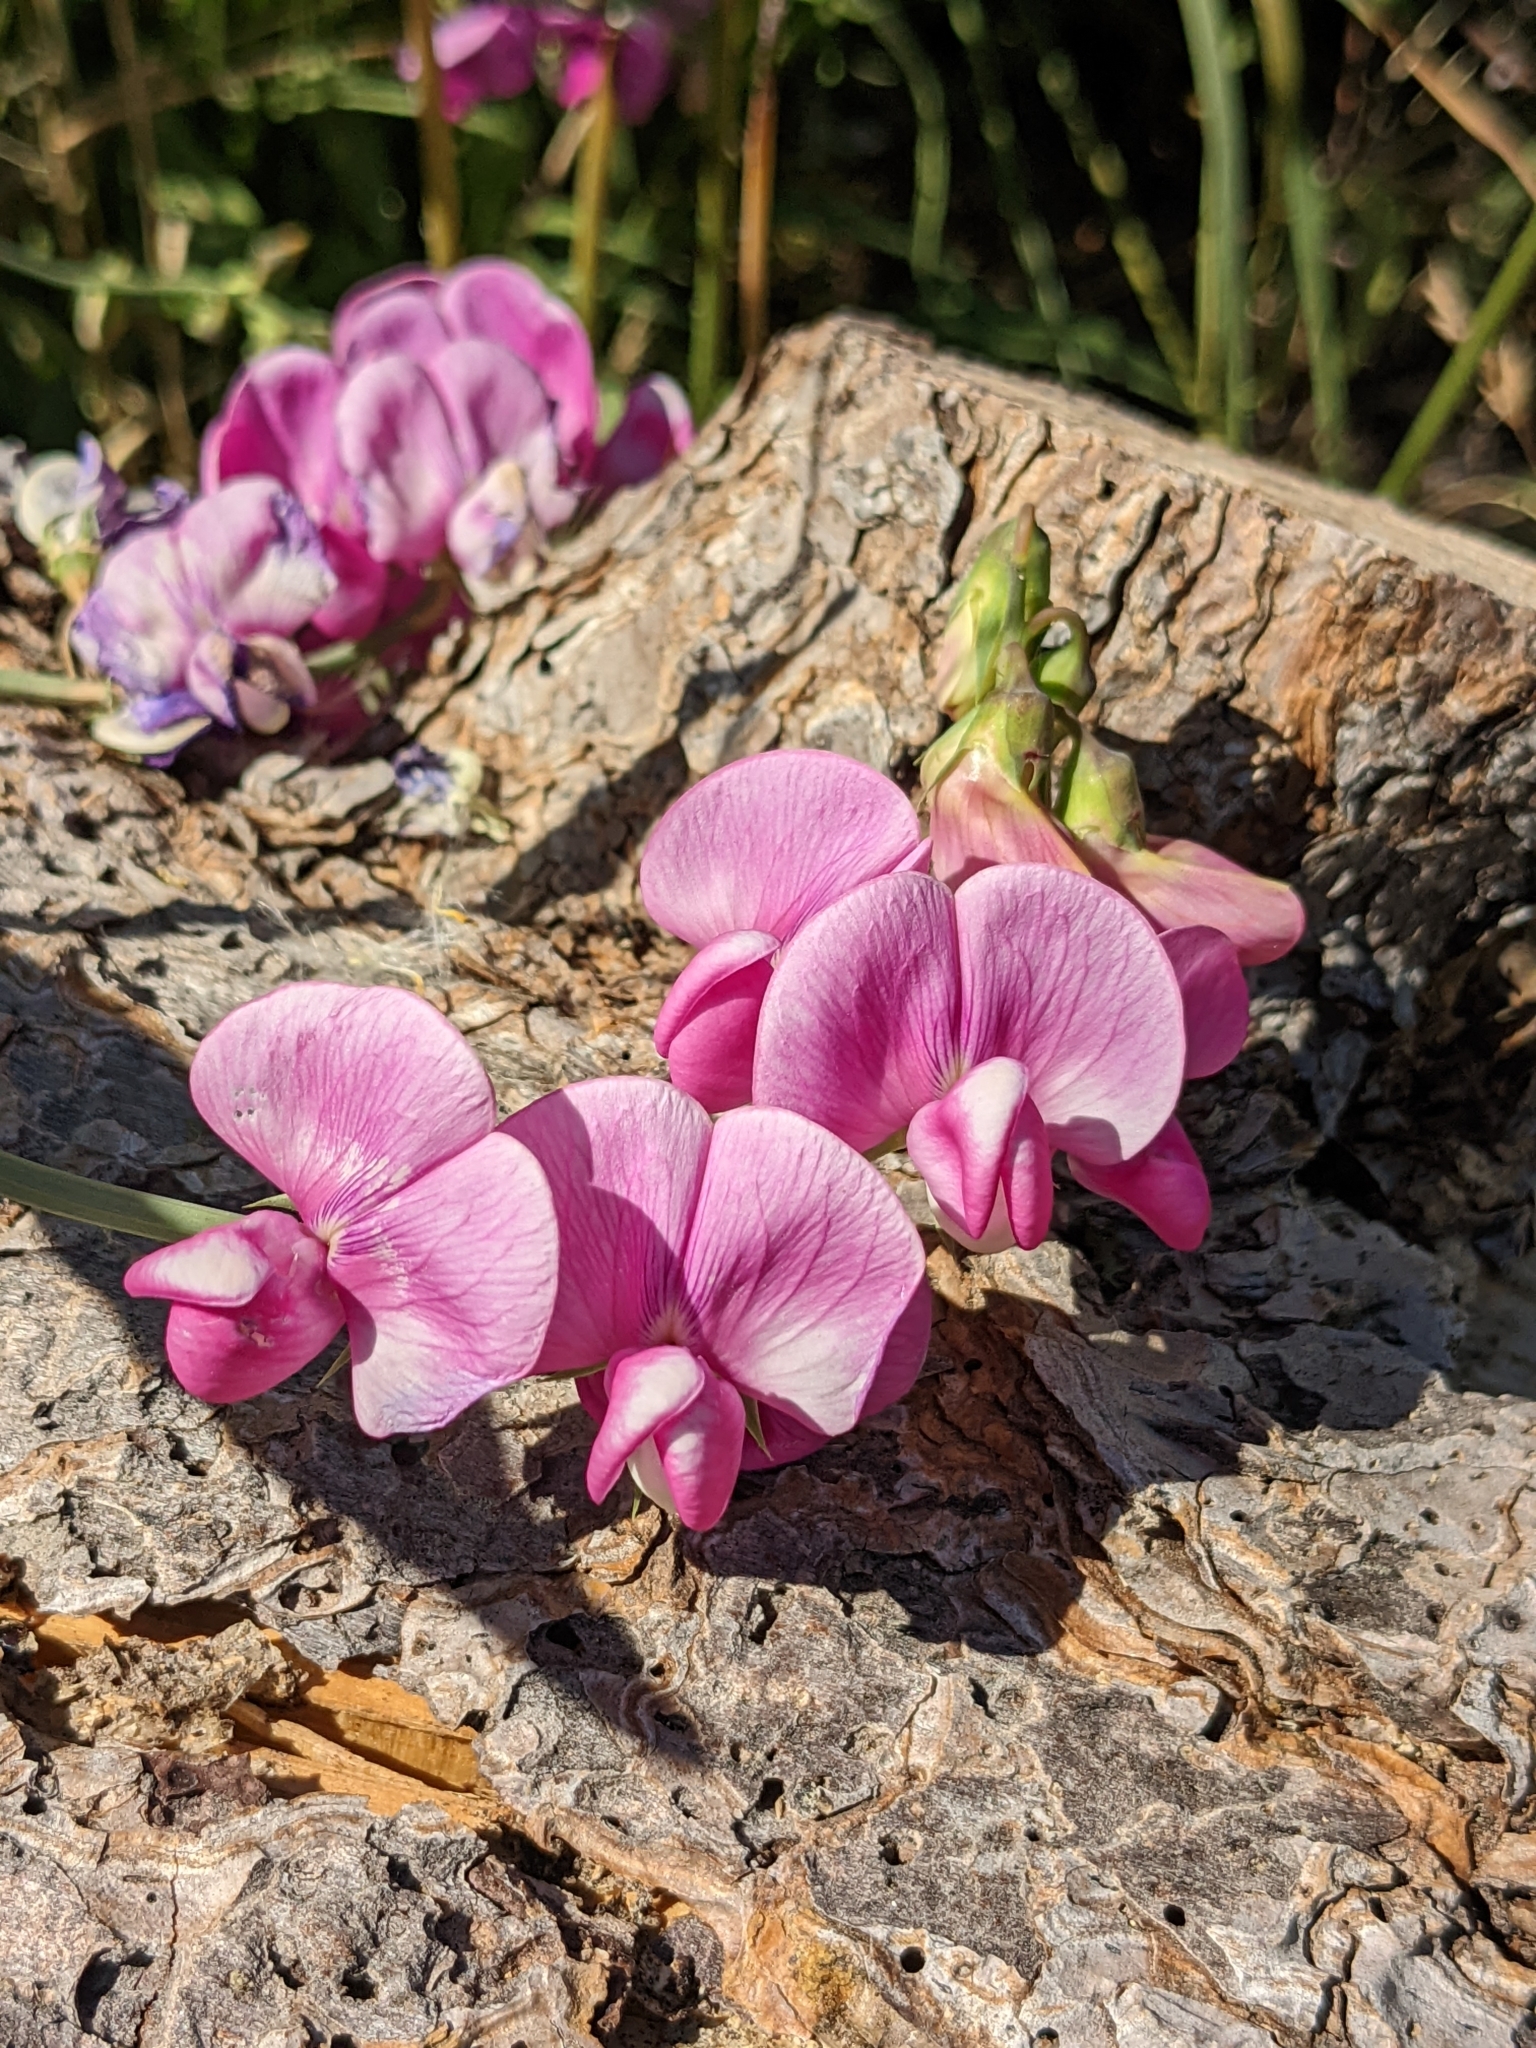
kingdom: Plantae
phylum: Tracheophyta
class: Magnoliopsida
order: Fabales
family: Fabaceae
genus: Lathyrus
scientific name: Lathyrus latifolius
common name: Perennial pea
